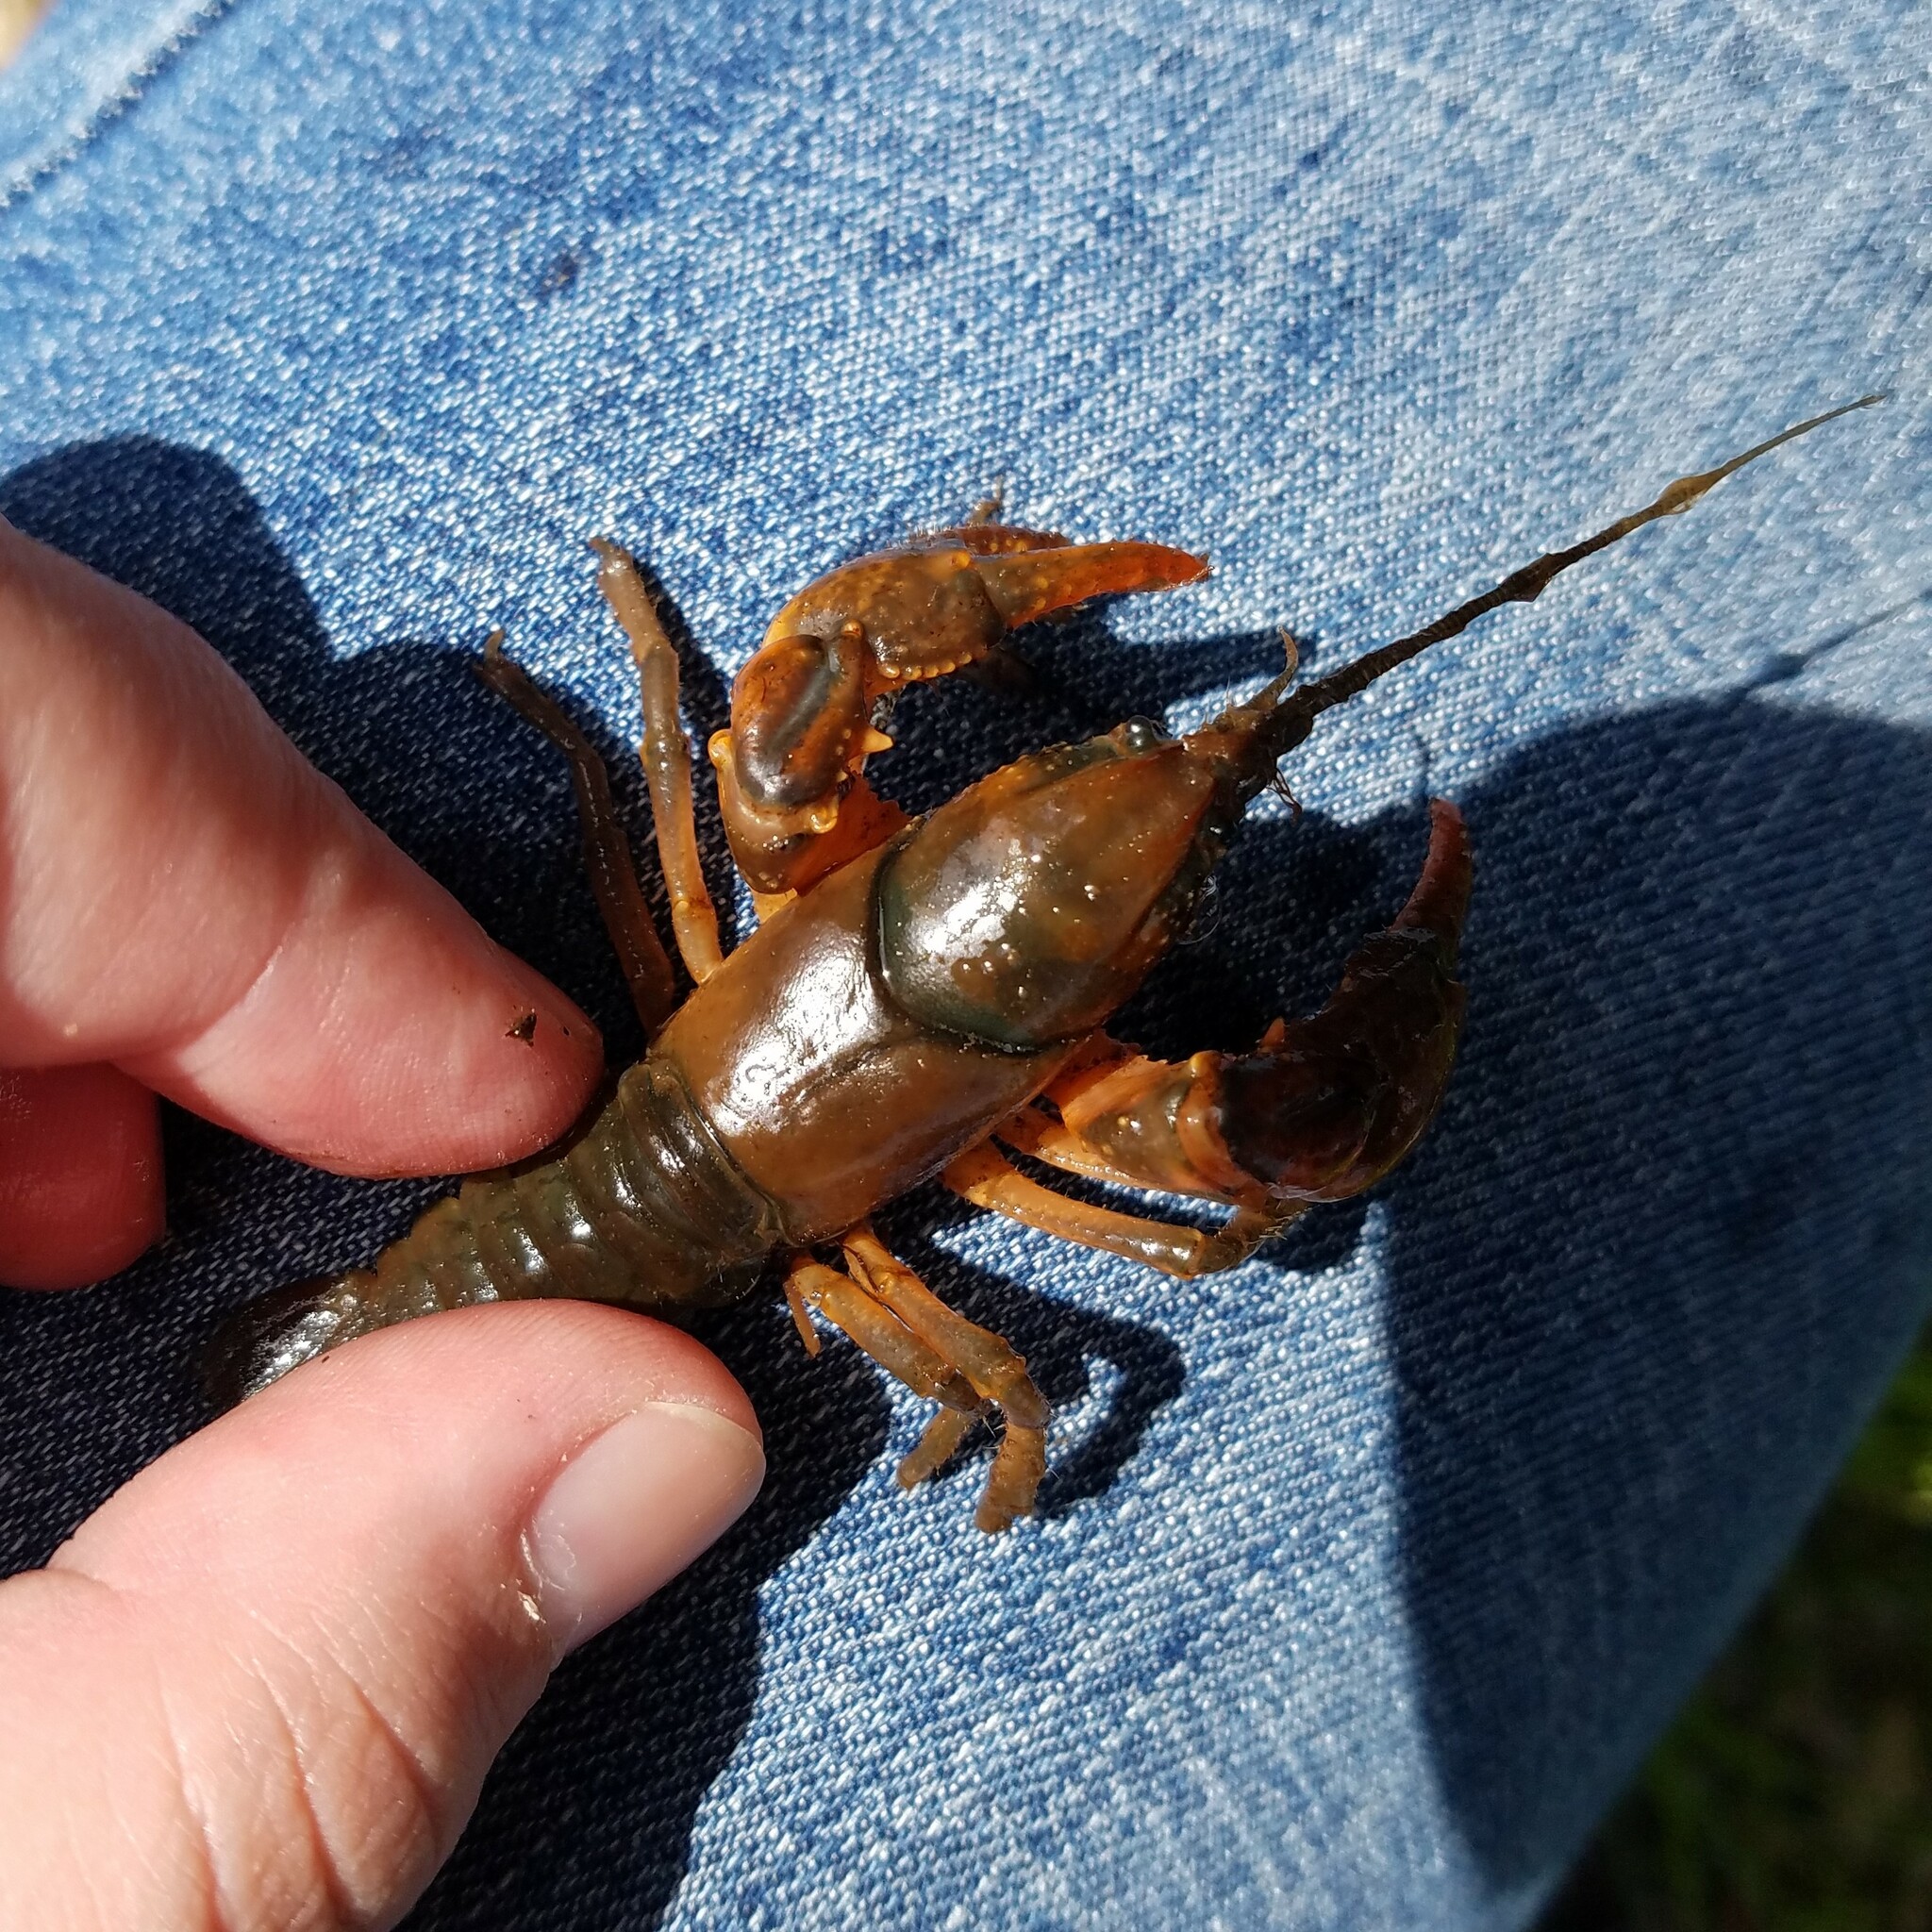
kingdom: Animalia
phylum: Arthropoda
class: Malacostraca
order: Decapoda
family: Cambaridae
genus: Cambarus
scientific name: Cambarus nodosus
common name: Knotty burrowing crayfish
